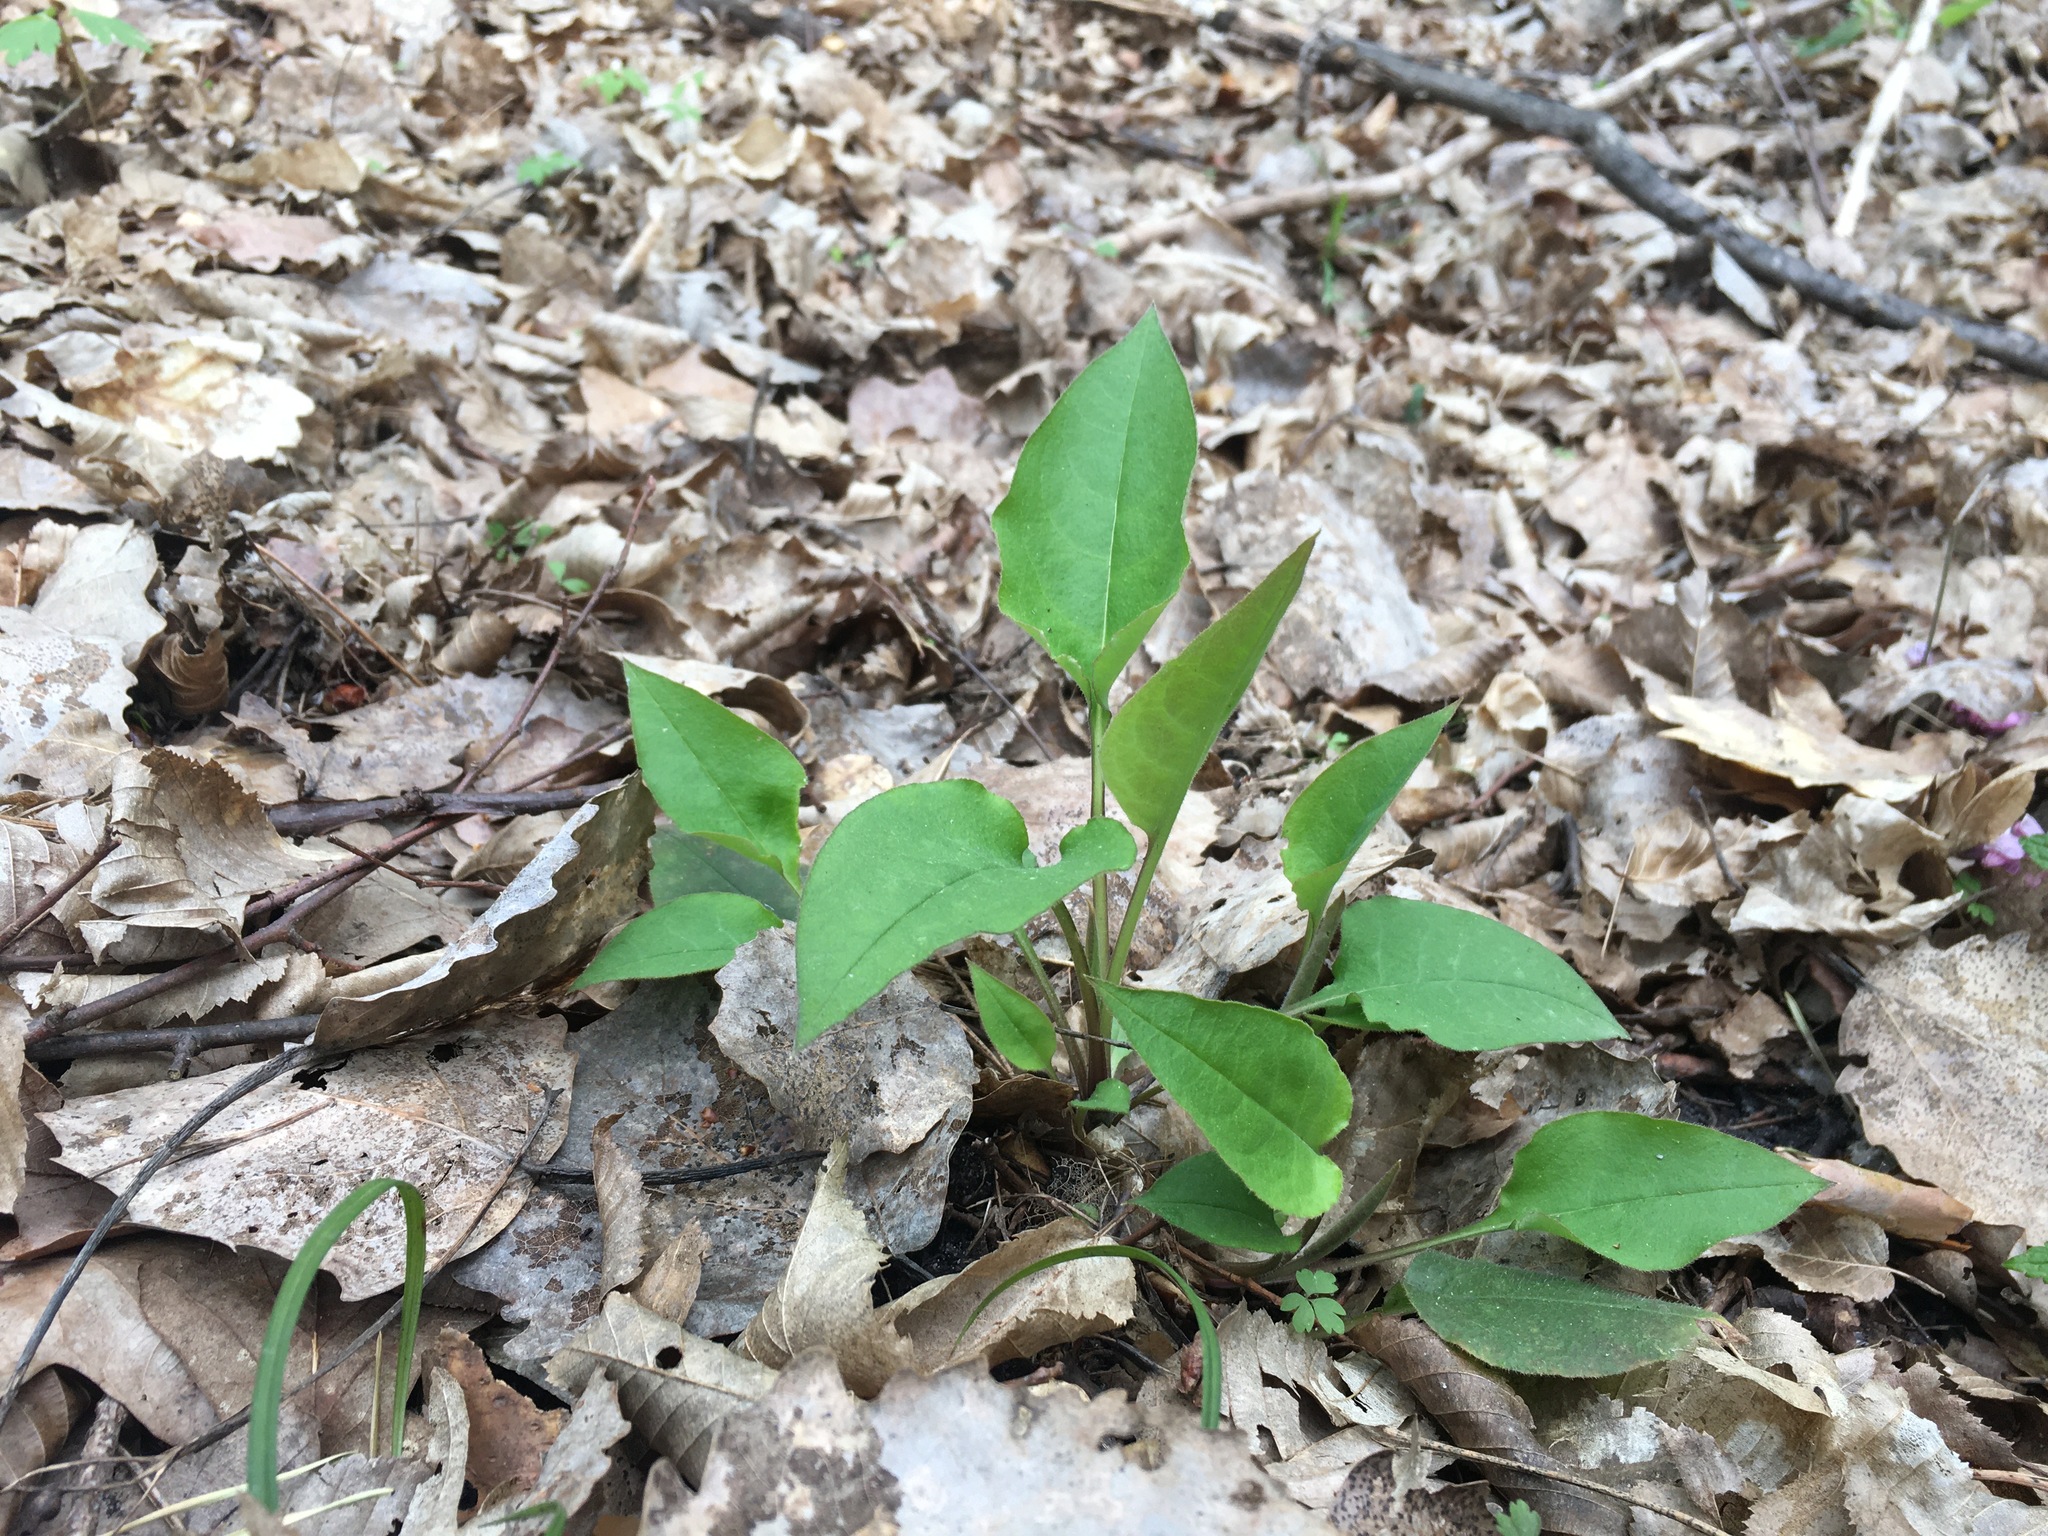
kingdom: Plantae
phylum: Tracheophyta
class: Magnoliopsida
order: Boraginales
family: Boraginaceae
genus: Pulmonaria
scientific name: Pulmonaria obscura
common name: Suffolk lungwort
